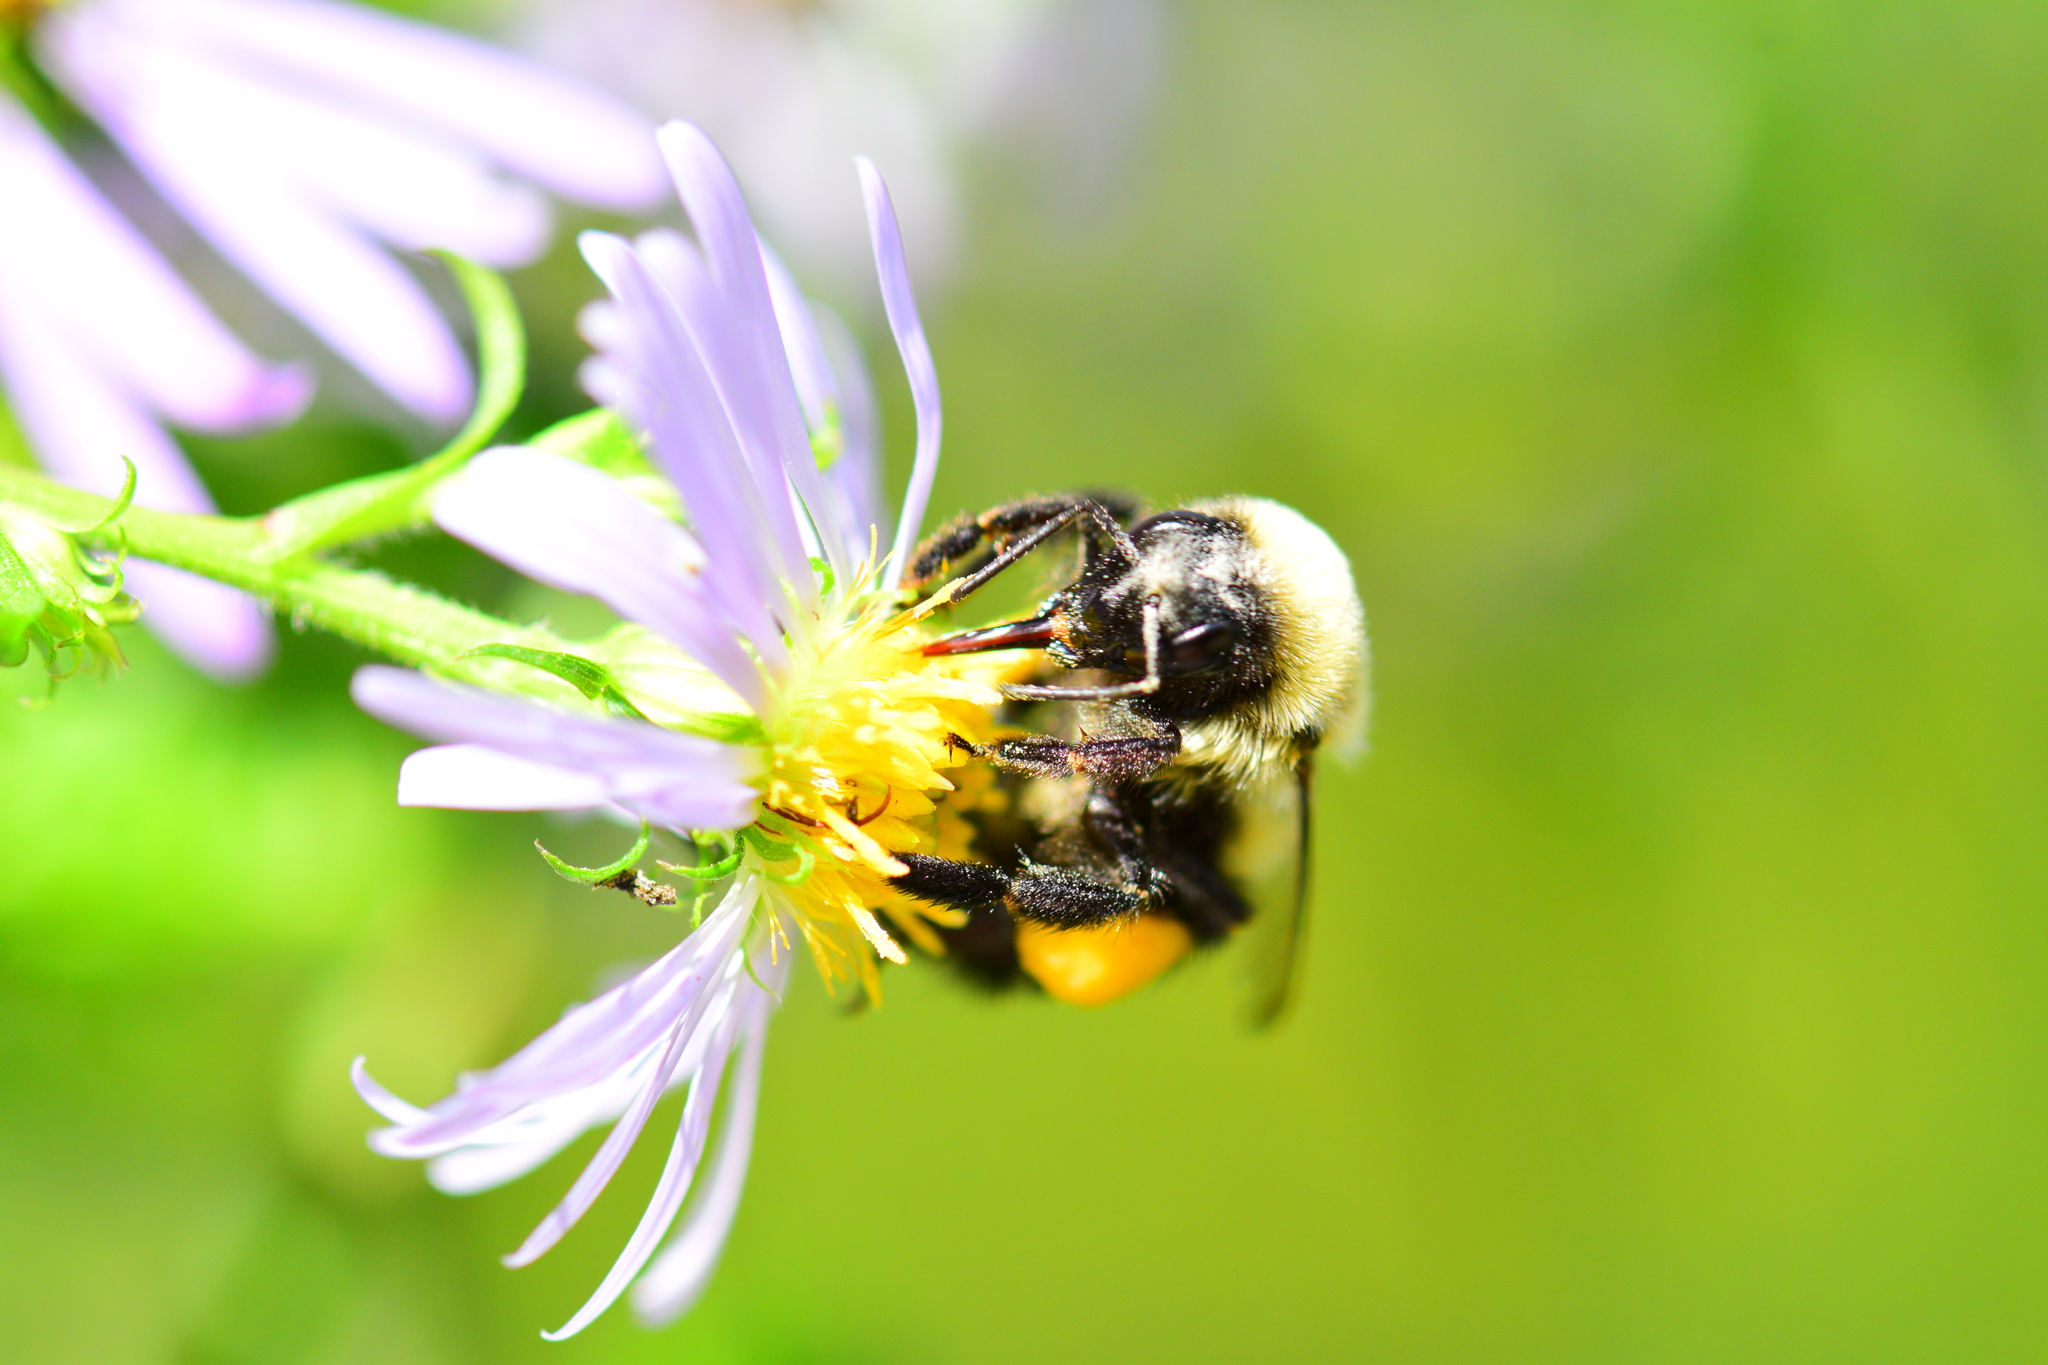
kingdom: Animalia
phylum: Arthropoda
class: Insecta
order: Hymenoptera
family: Apidae
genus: Bombus
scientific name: Bombus impatiens
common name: Common eastern bumble bee
